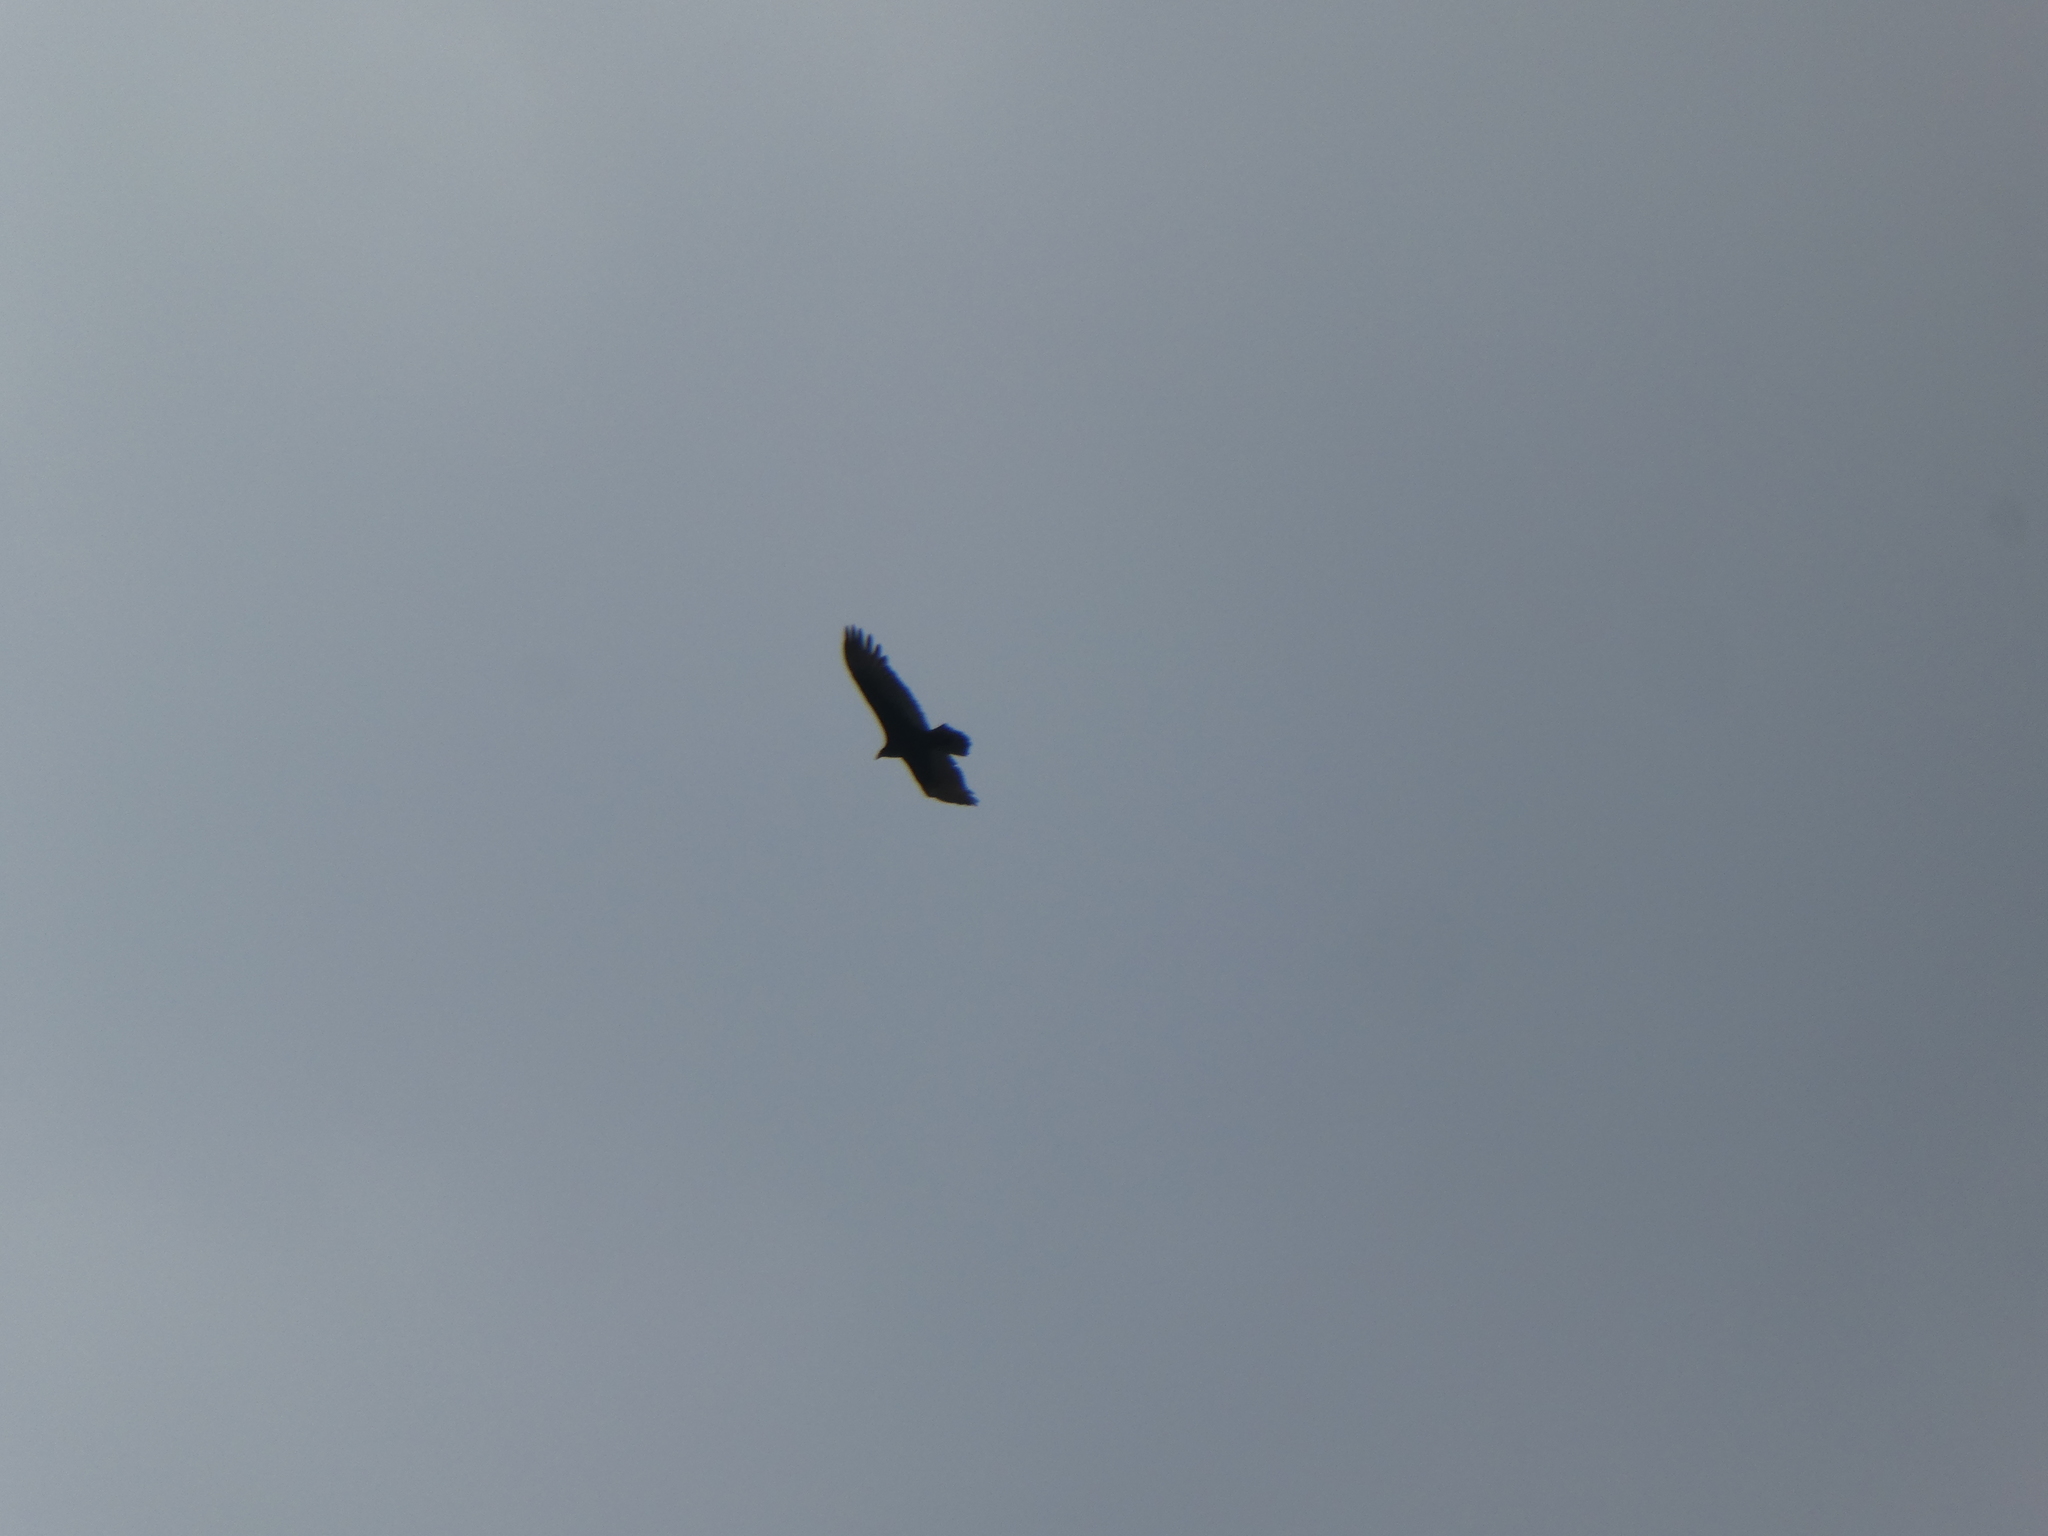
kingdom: Animalia
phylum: Chordata
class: Aves
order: Accipitriformes
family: Cathartidae
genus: Cathartes
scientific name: Cathartes aura
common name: Turkey vulture
